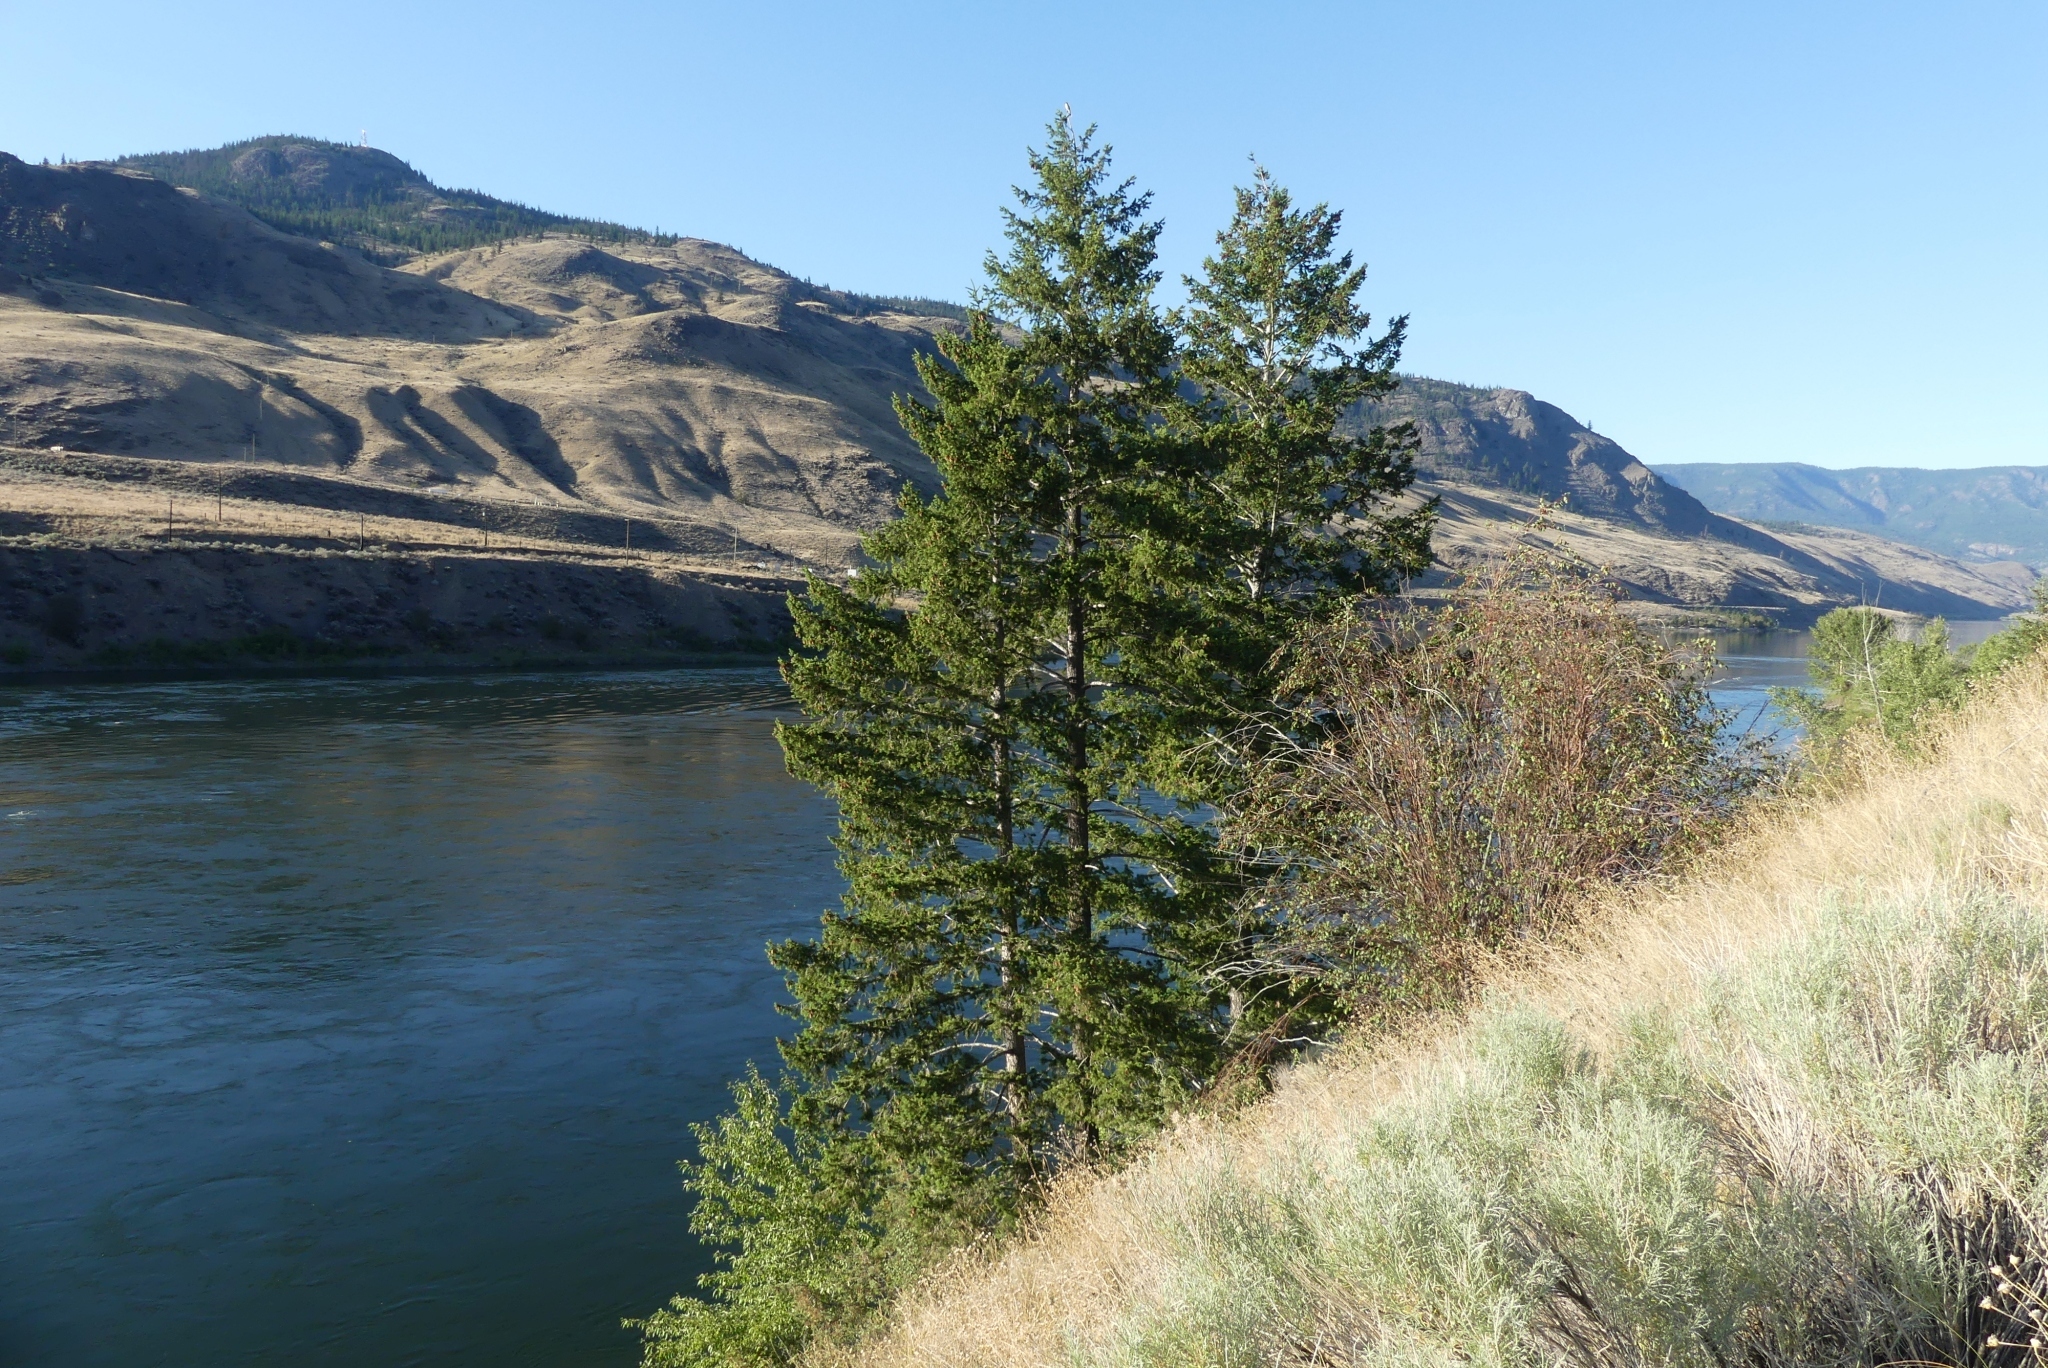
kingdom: Plantae
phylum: Tracheophyta
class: Pinopsida
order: Pinales
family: Pinaceae
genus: Pseudotsuga
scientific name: Pseudotsuga menziesii
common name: Douglas fir
